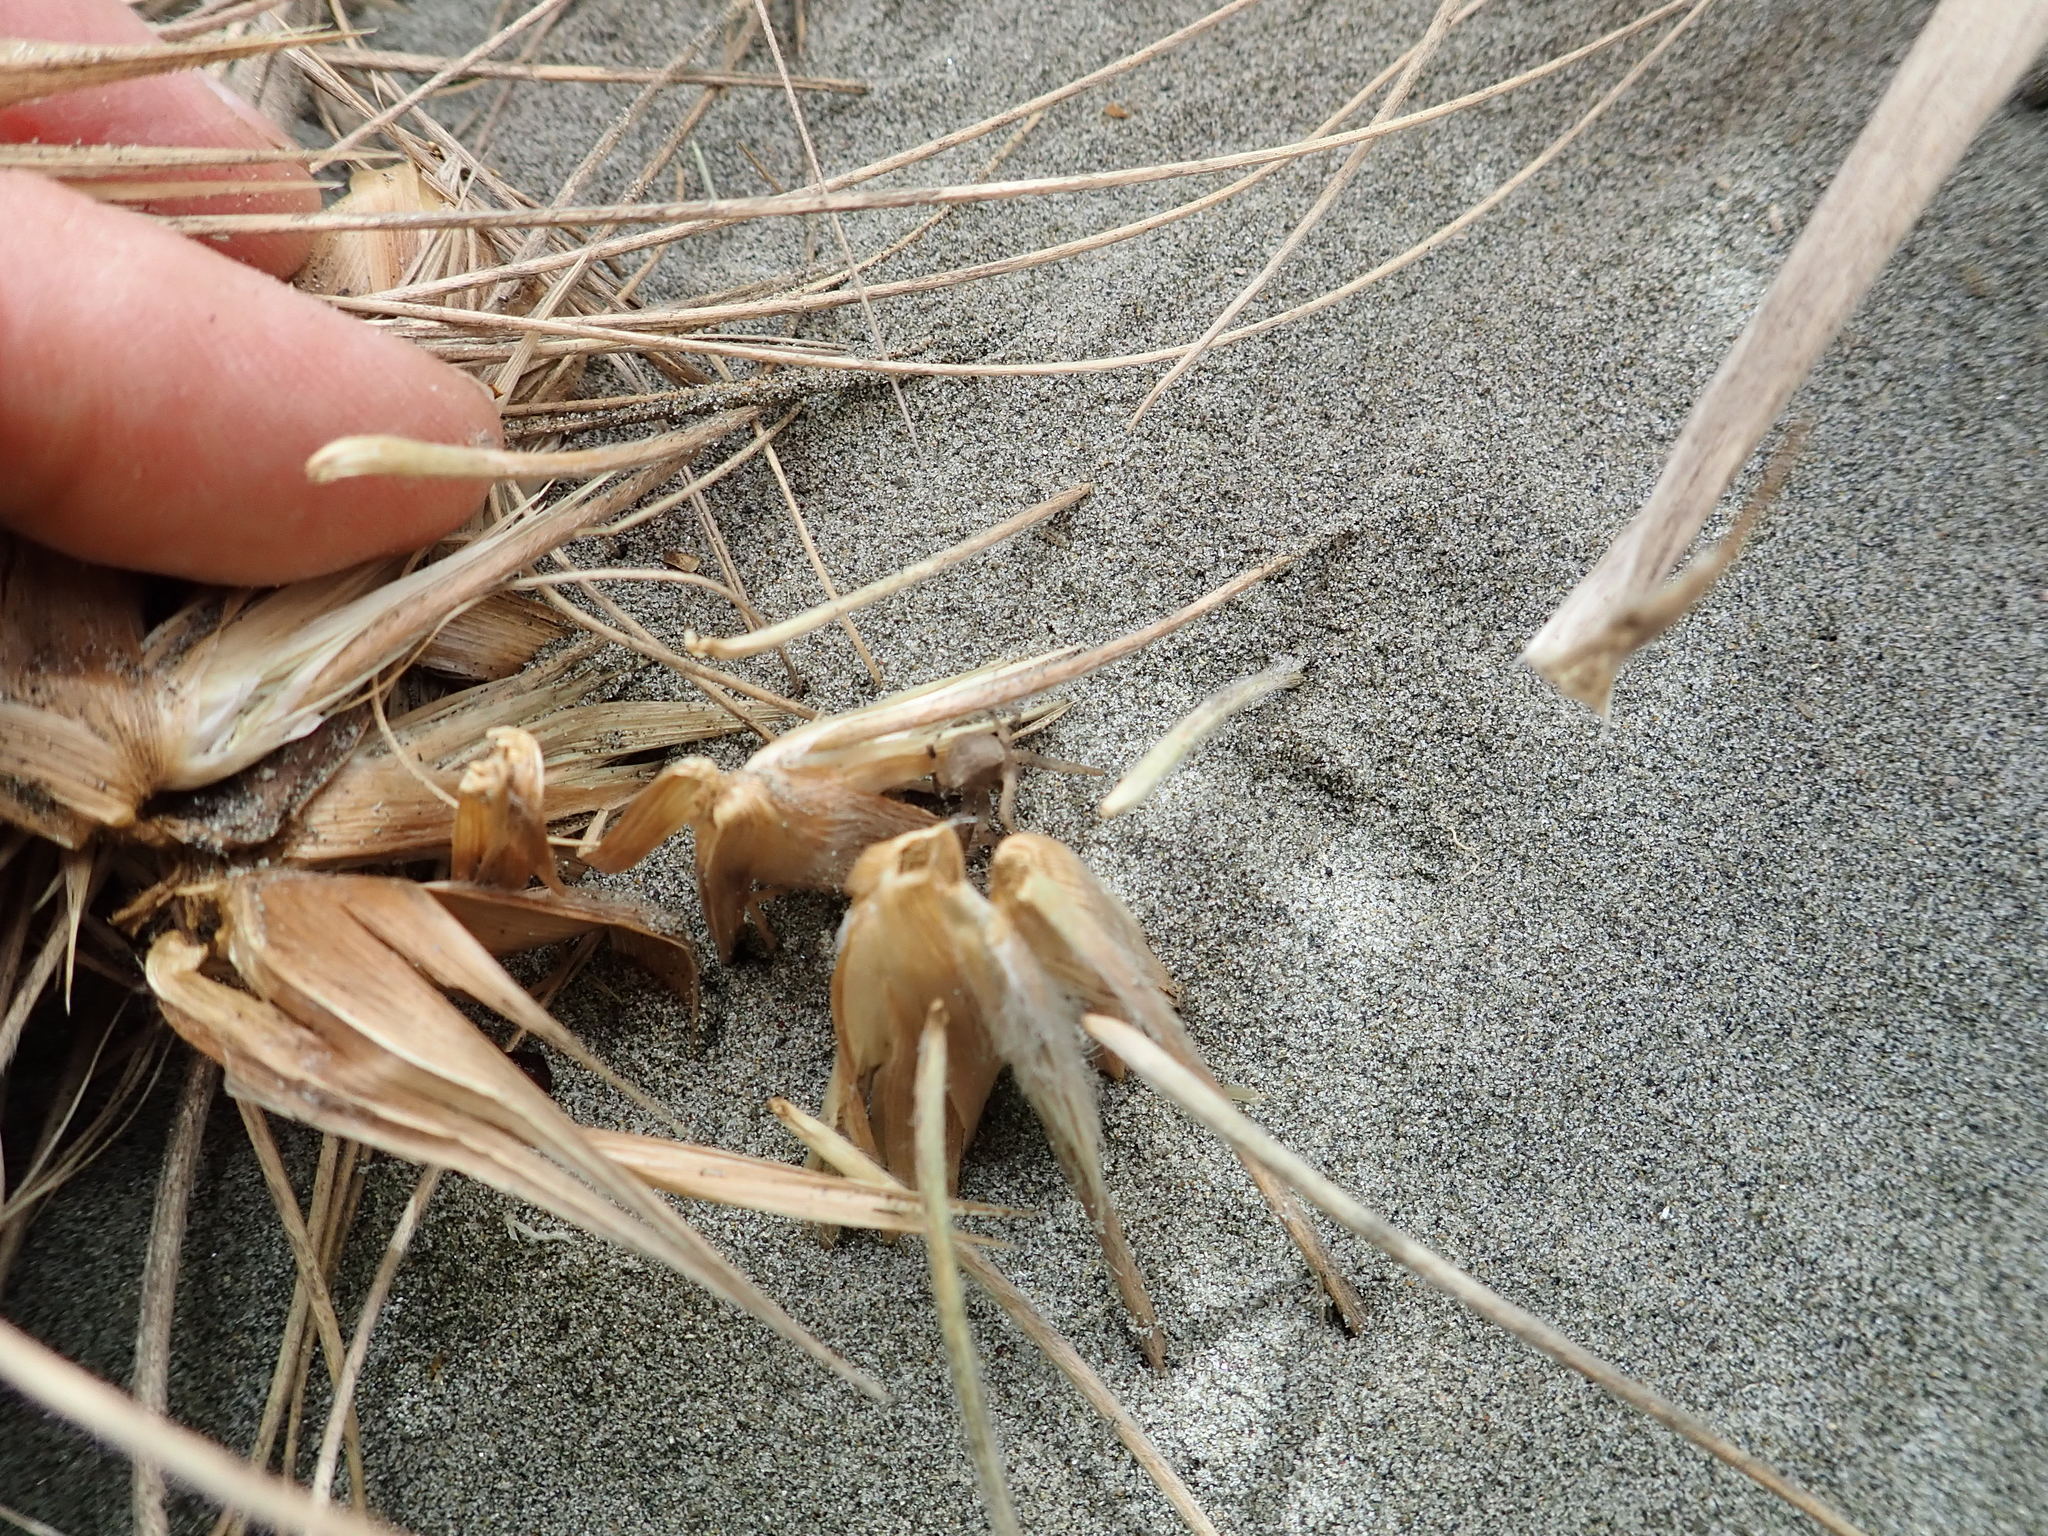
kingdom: Animalia
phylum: Arthropoda
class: Arachnida
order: Araneae
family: Thomisidae
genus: Sidymella
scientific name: Sidymella trapezia
